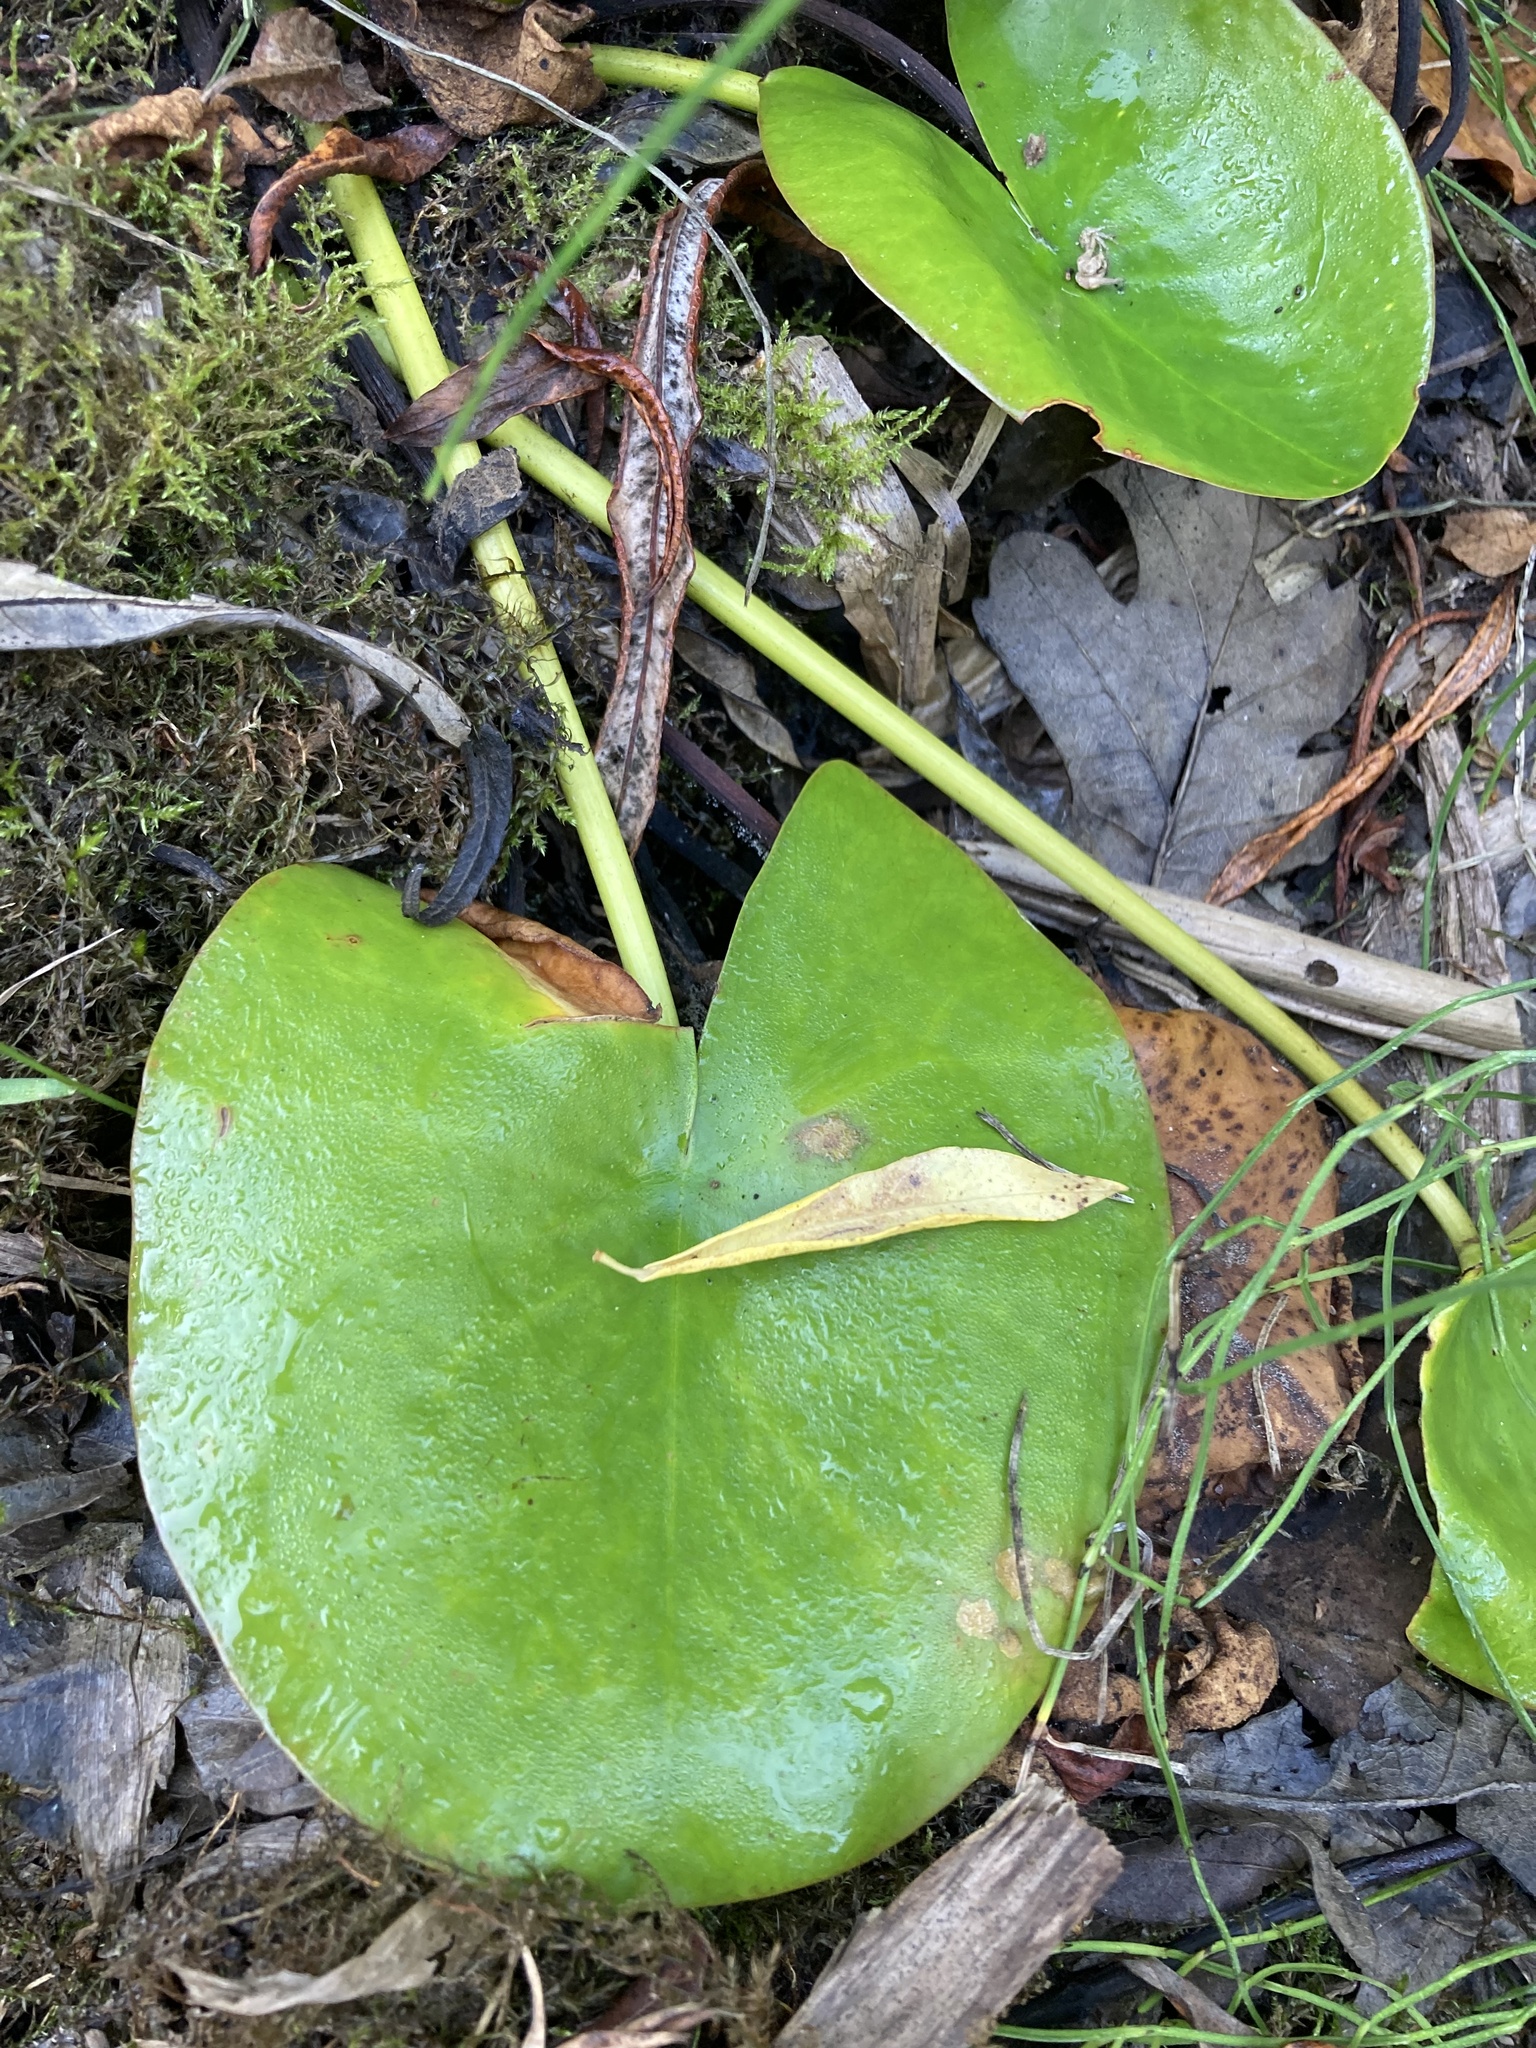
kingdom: Plantae
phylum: Tracheophyta
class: Liliopsida
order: Alismatales
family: Hydrocharitaceae
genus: Hydrocharis
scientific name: Hydrocharis morsus-ranae
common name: Frogbit
